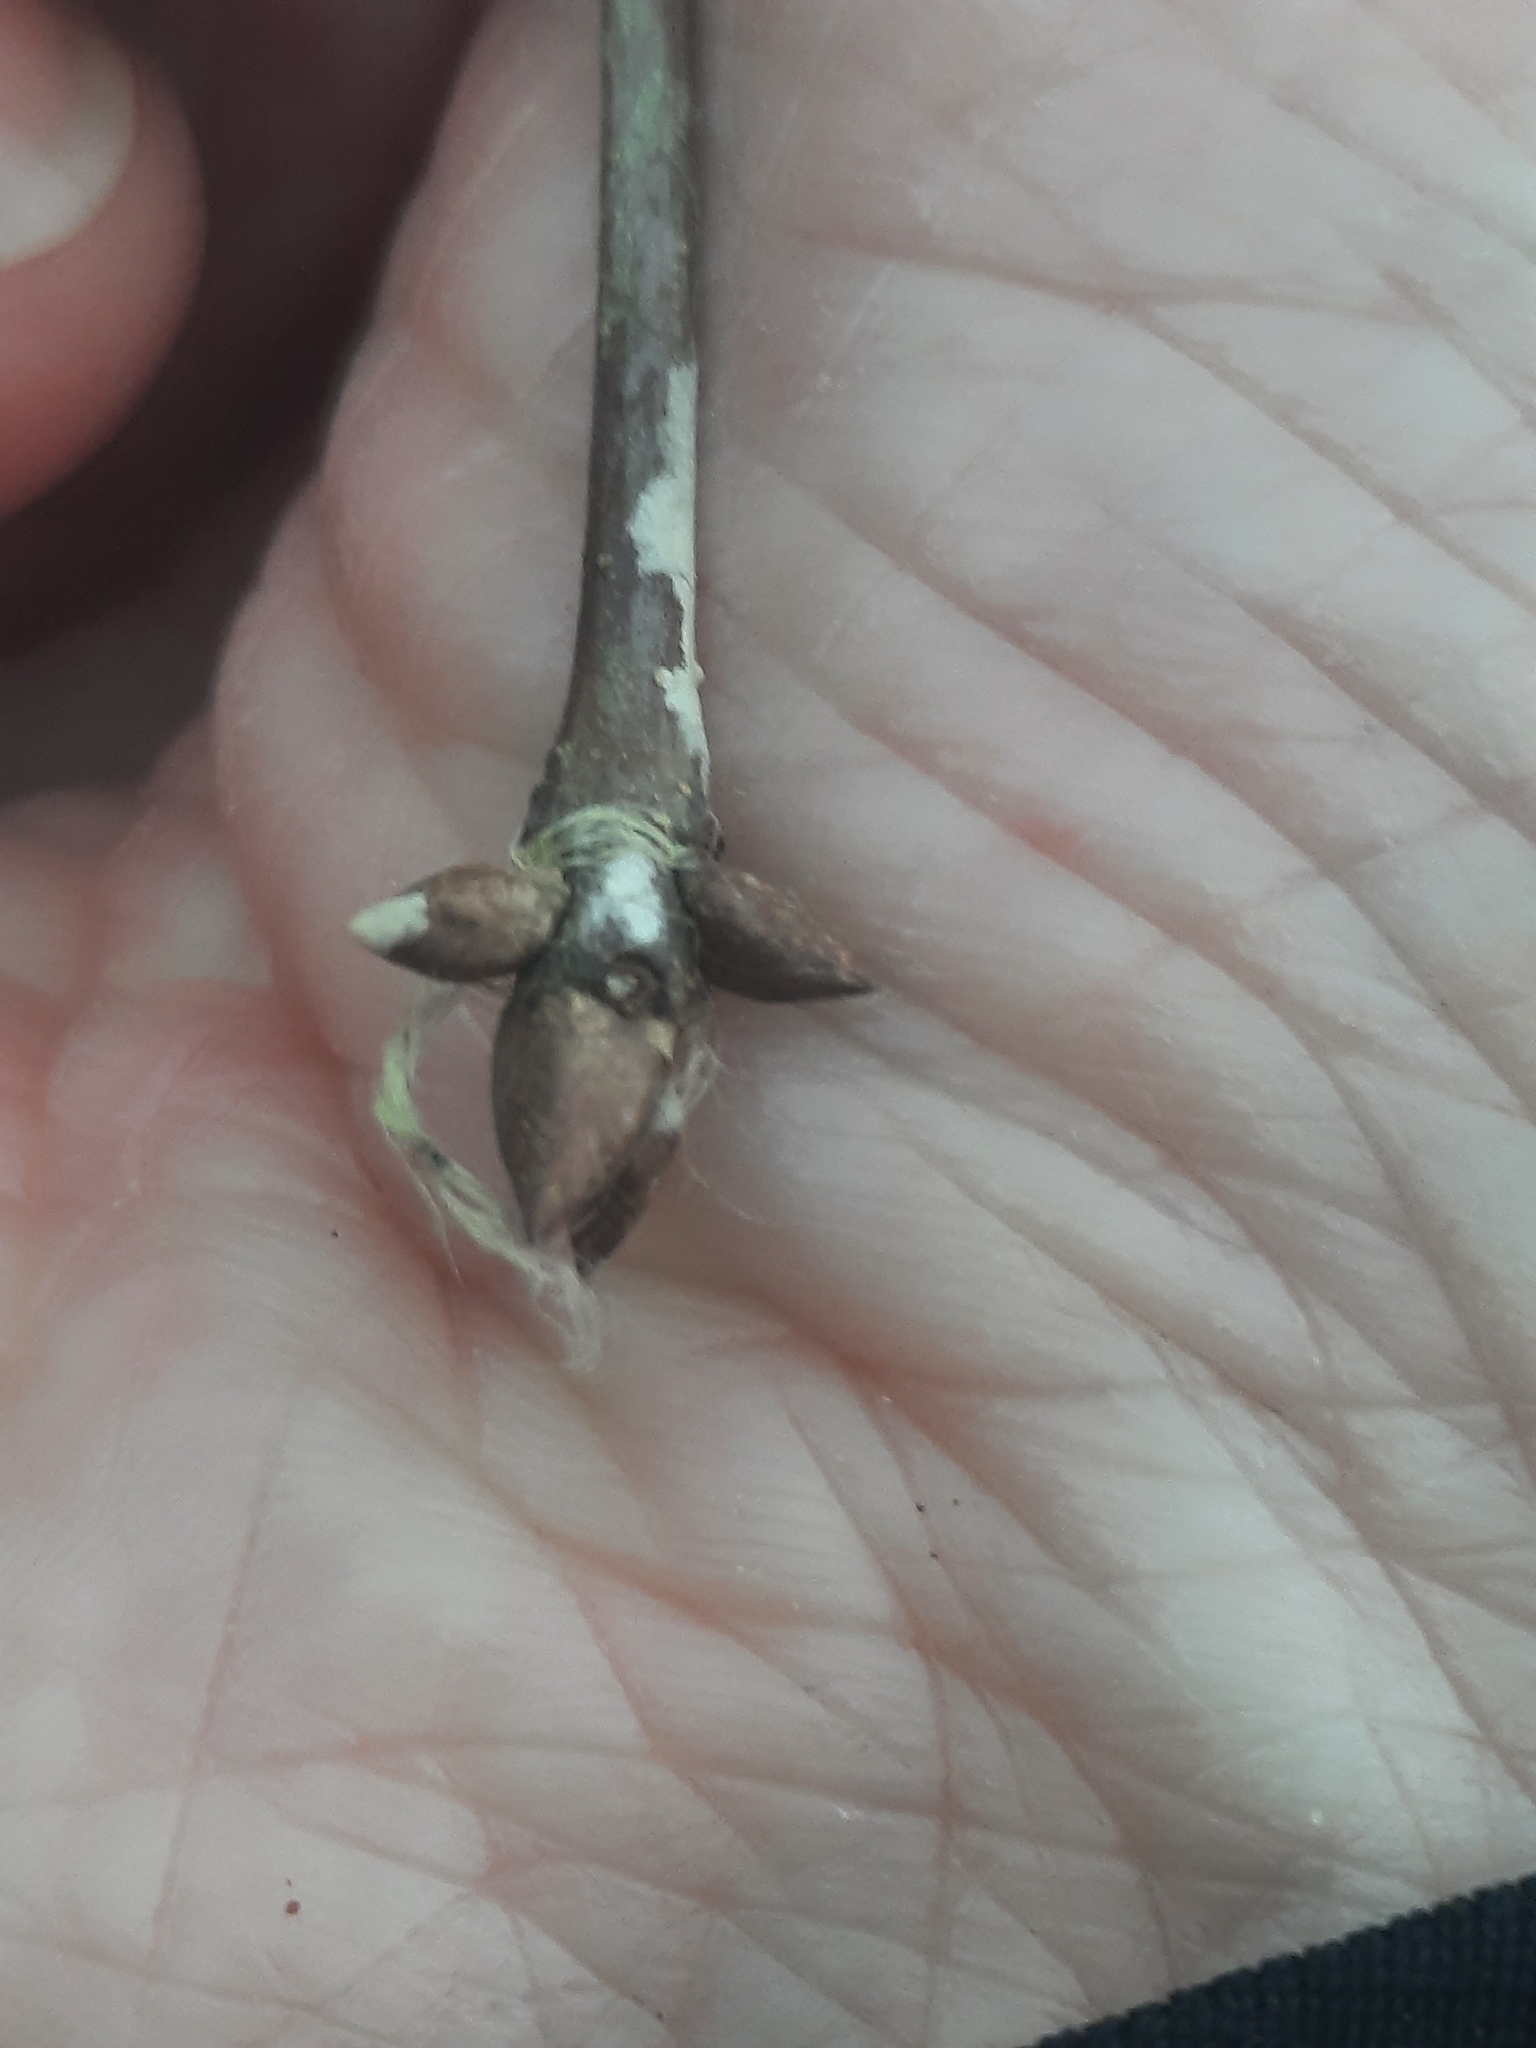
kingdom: Plantae
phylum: Tracheophyta
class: Magnoliopsida
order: Fagales
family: Fagaceae
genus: Quercus
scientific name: Quercus laurifolia
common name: Swamp laurel oak
